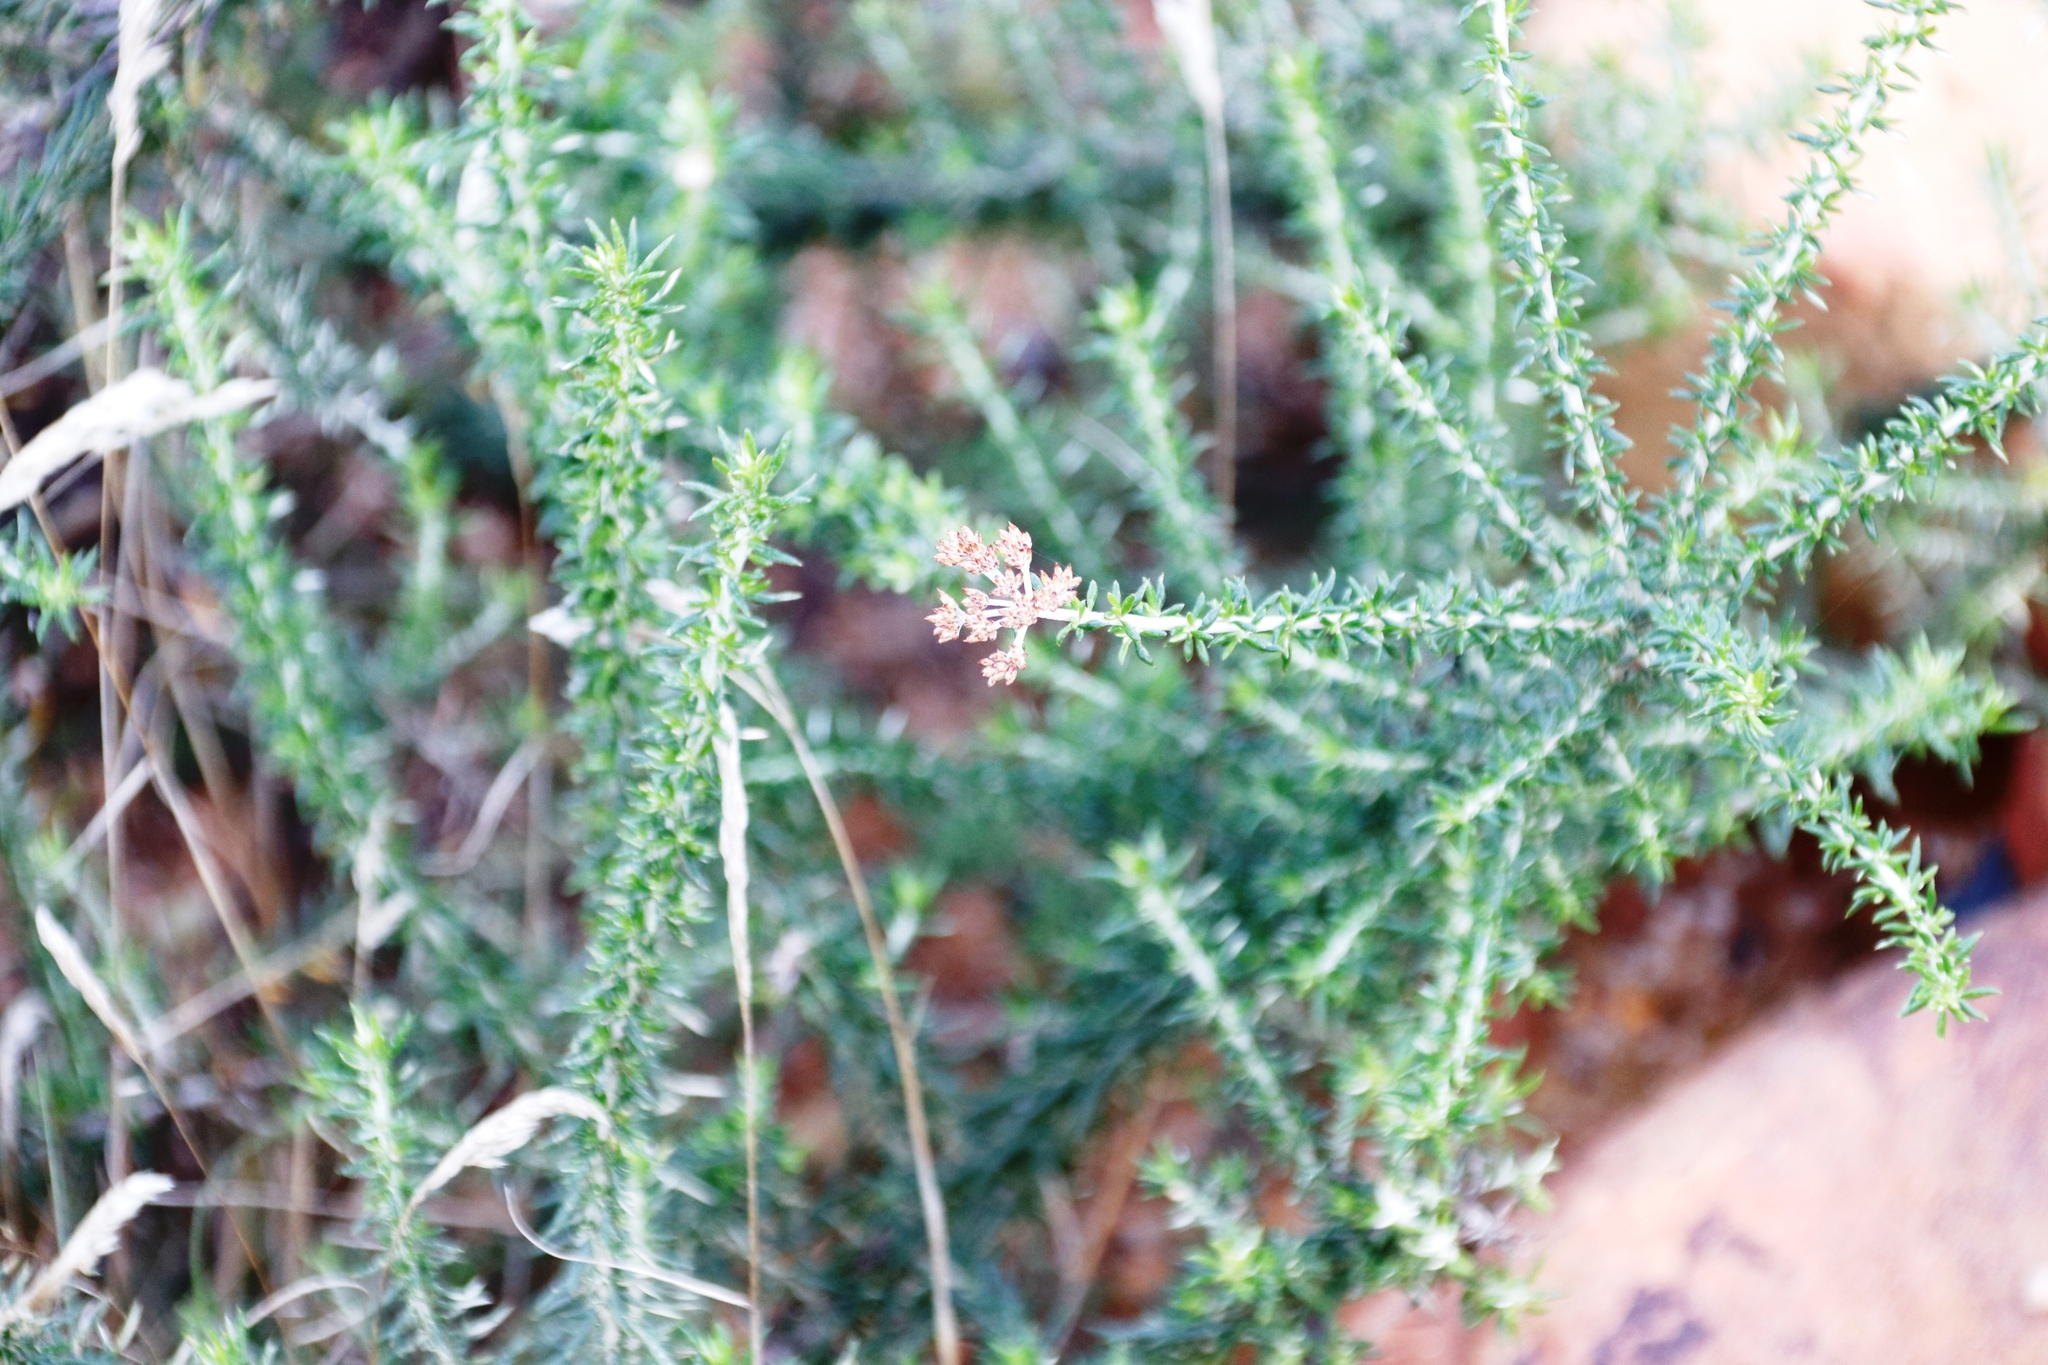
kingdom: Plantae
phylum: Tracheophyta
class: Magnoliopsida
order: Asterales
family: Asteraceae
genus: Metalasia
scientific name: Metalasia densa
